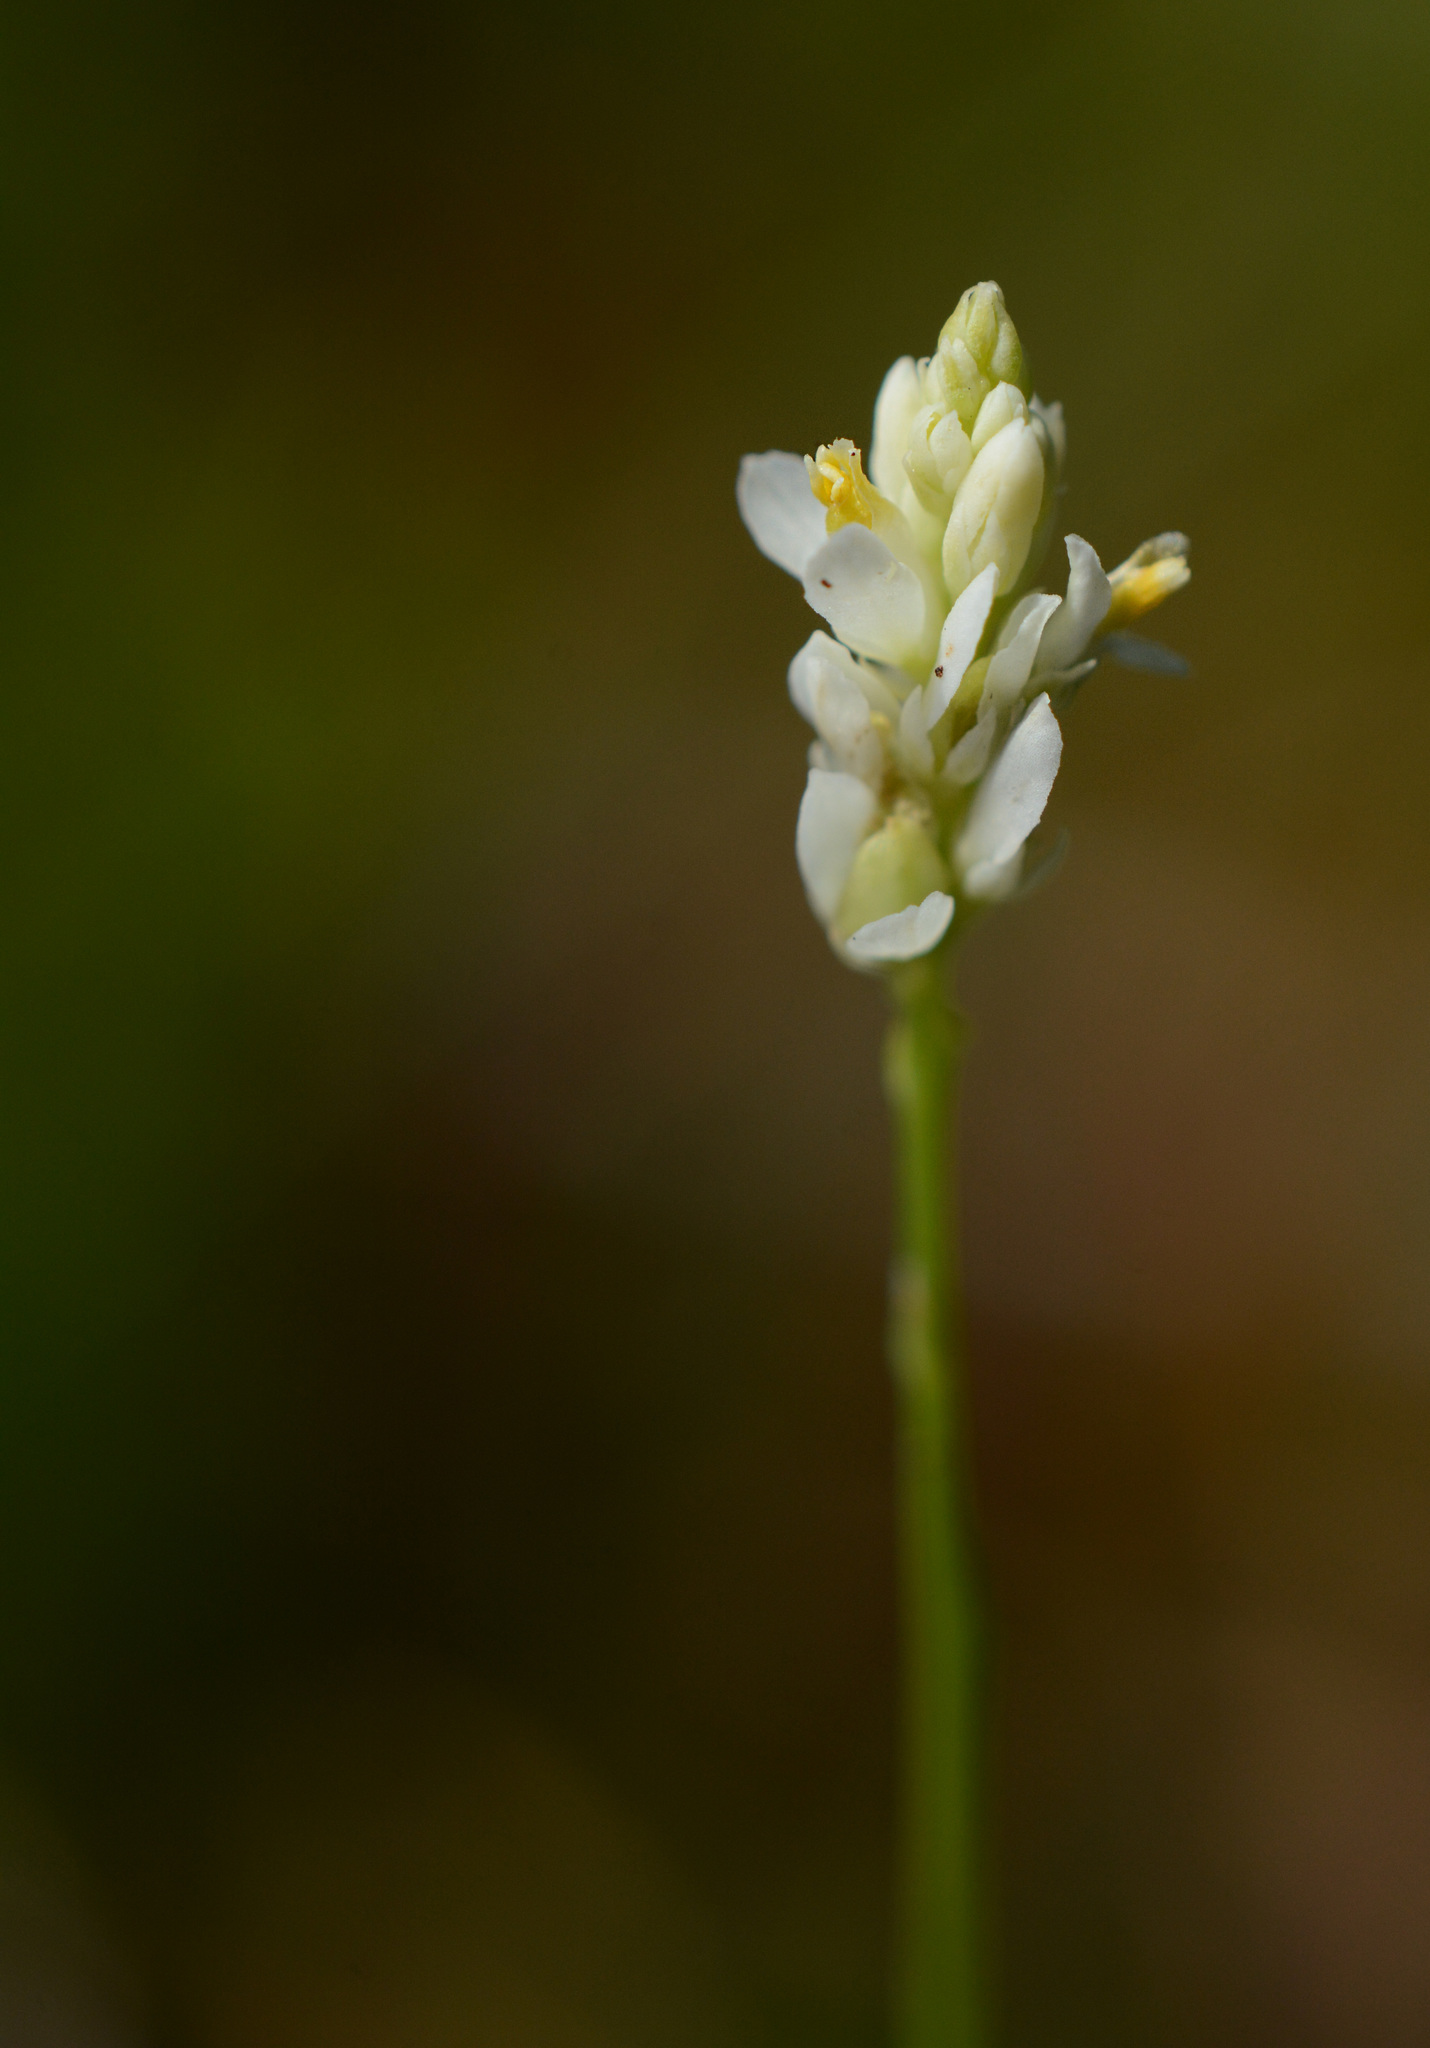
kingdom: Plantae
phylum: Tracheophyta
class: Magnoliopsida
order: Fabales
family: Polygalaceae
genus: Polygala
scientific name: Polygala setacea
